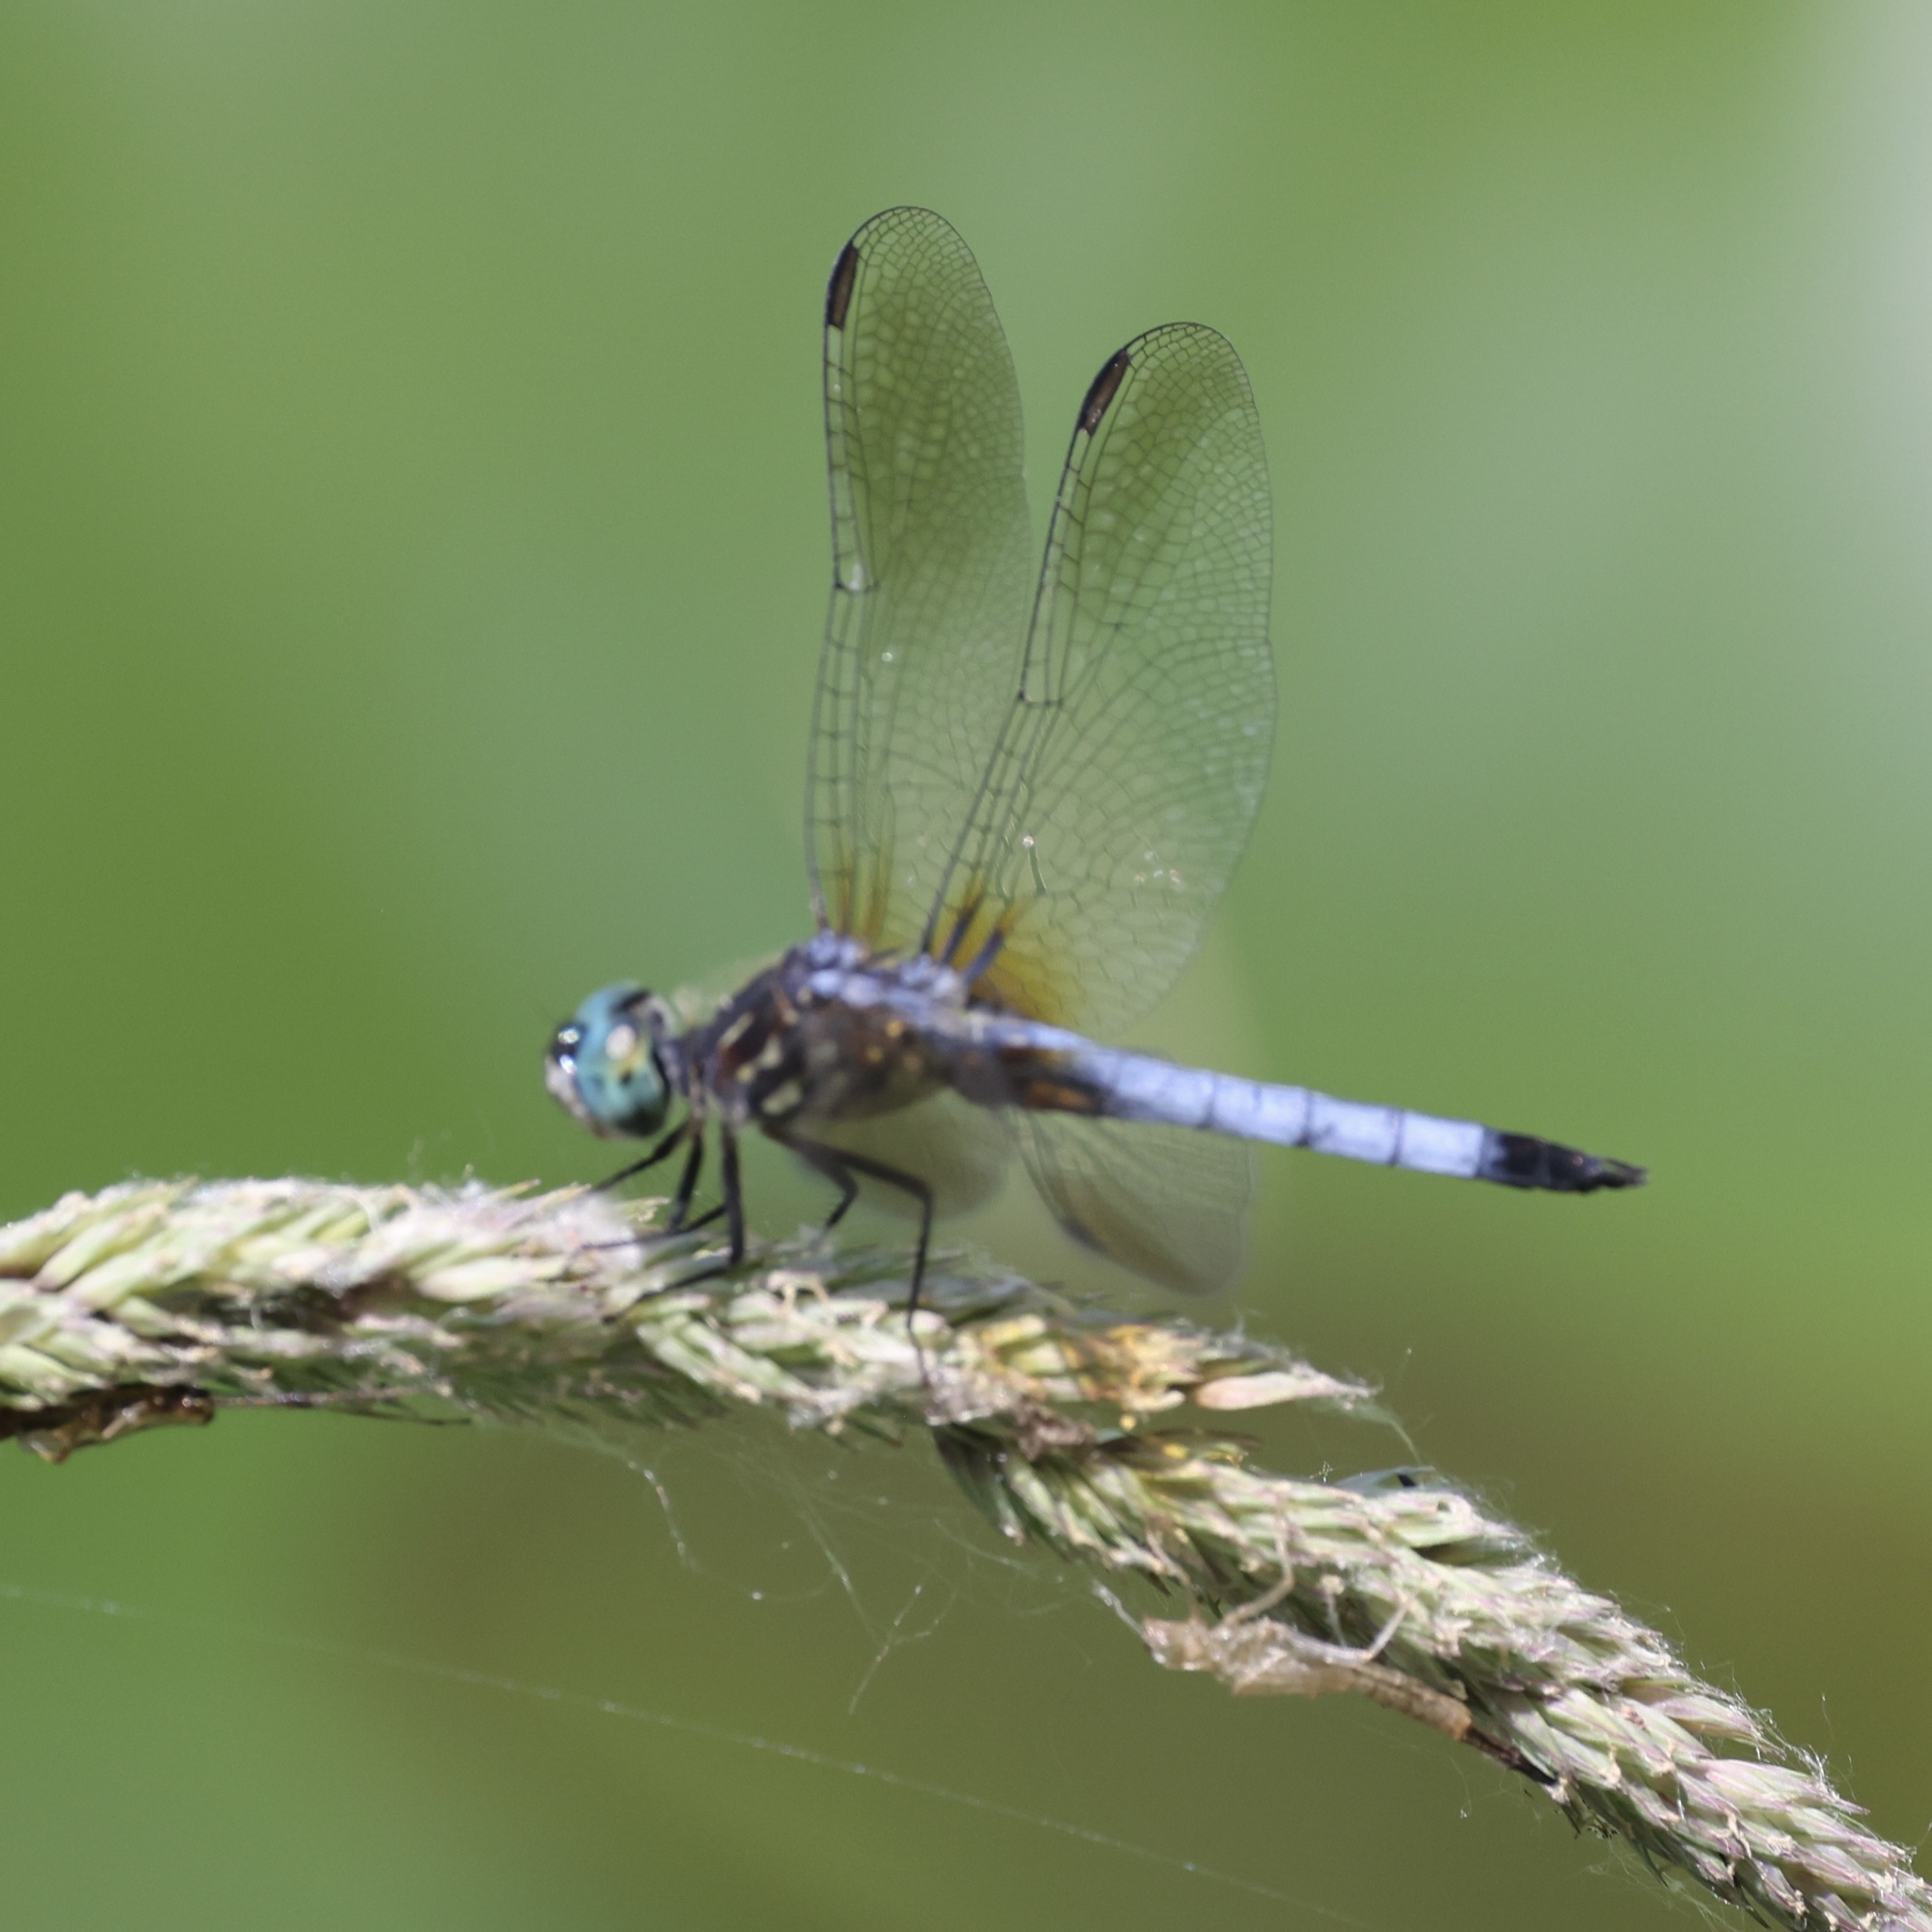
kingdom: Animalia
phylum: Arthropoda
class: Insecta
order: Odonata
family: Libellulidae
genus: Pachydiplax
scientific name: Pachydiplax longipennis
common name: Blue dasher
